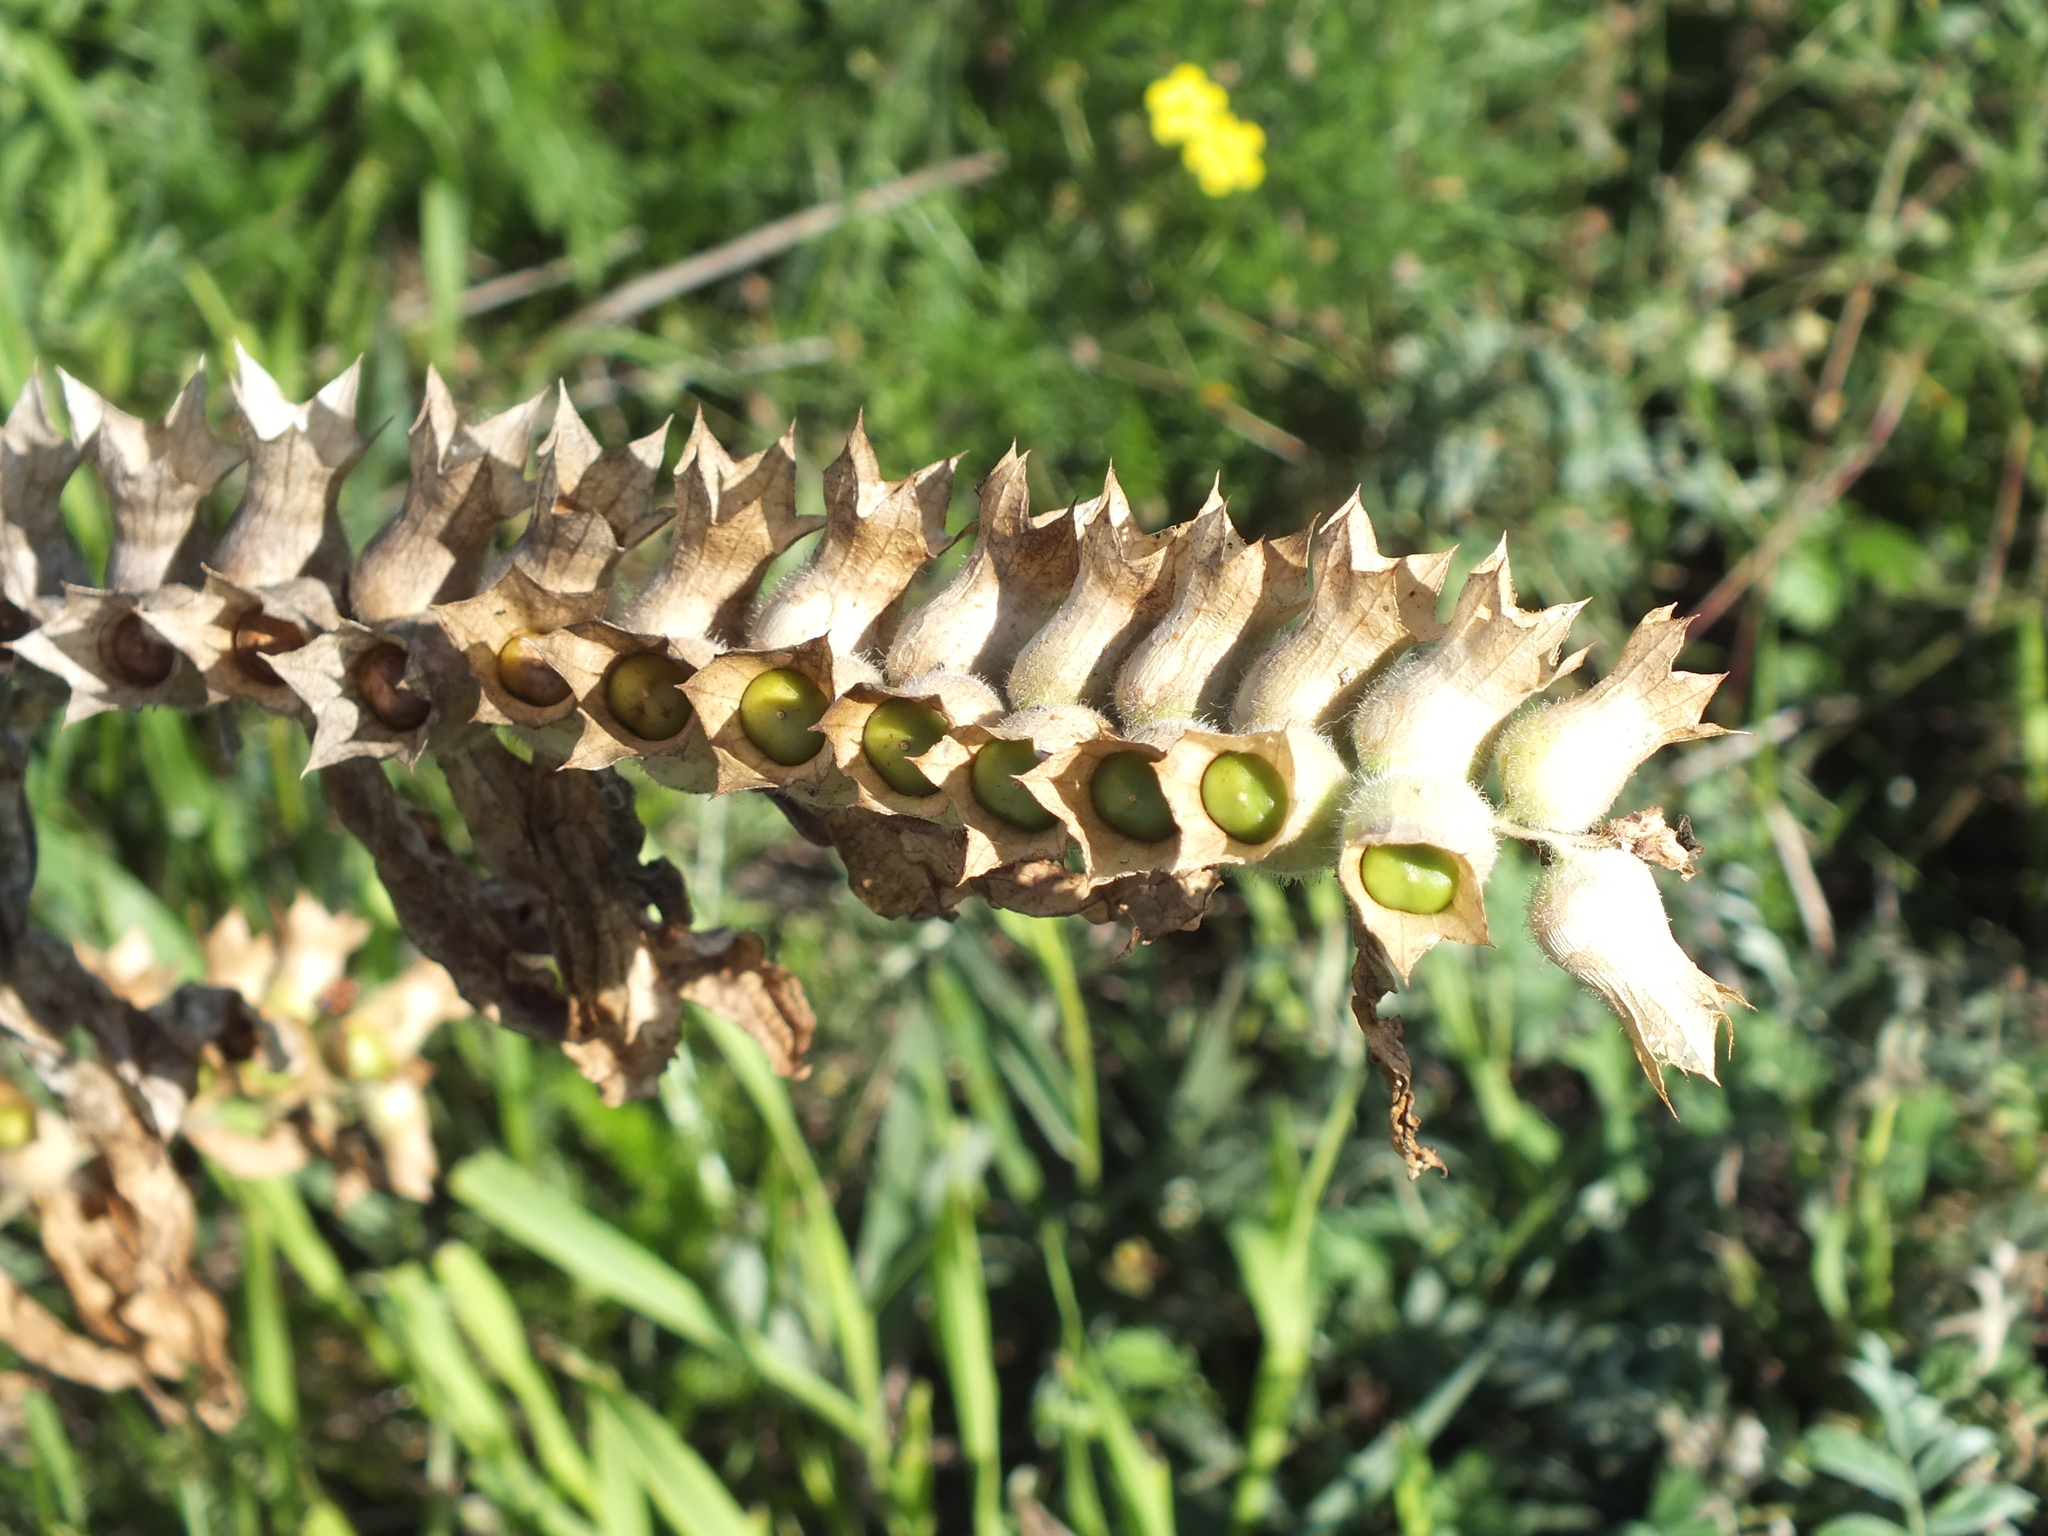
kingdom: Plantae
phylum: Tracheophyta
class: Magnoliopsida
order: Solanales
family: Solanaceae
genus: Hyoscyamus
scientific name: Hyoscyamus niger
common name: Henbane
